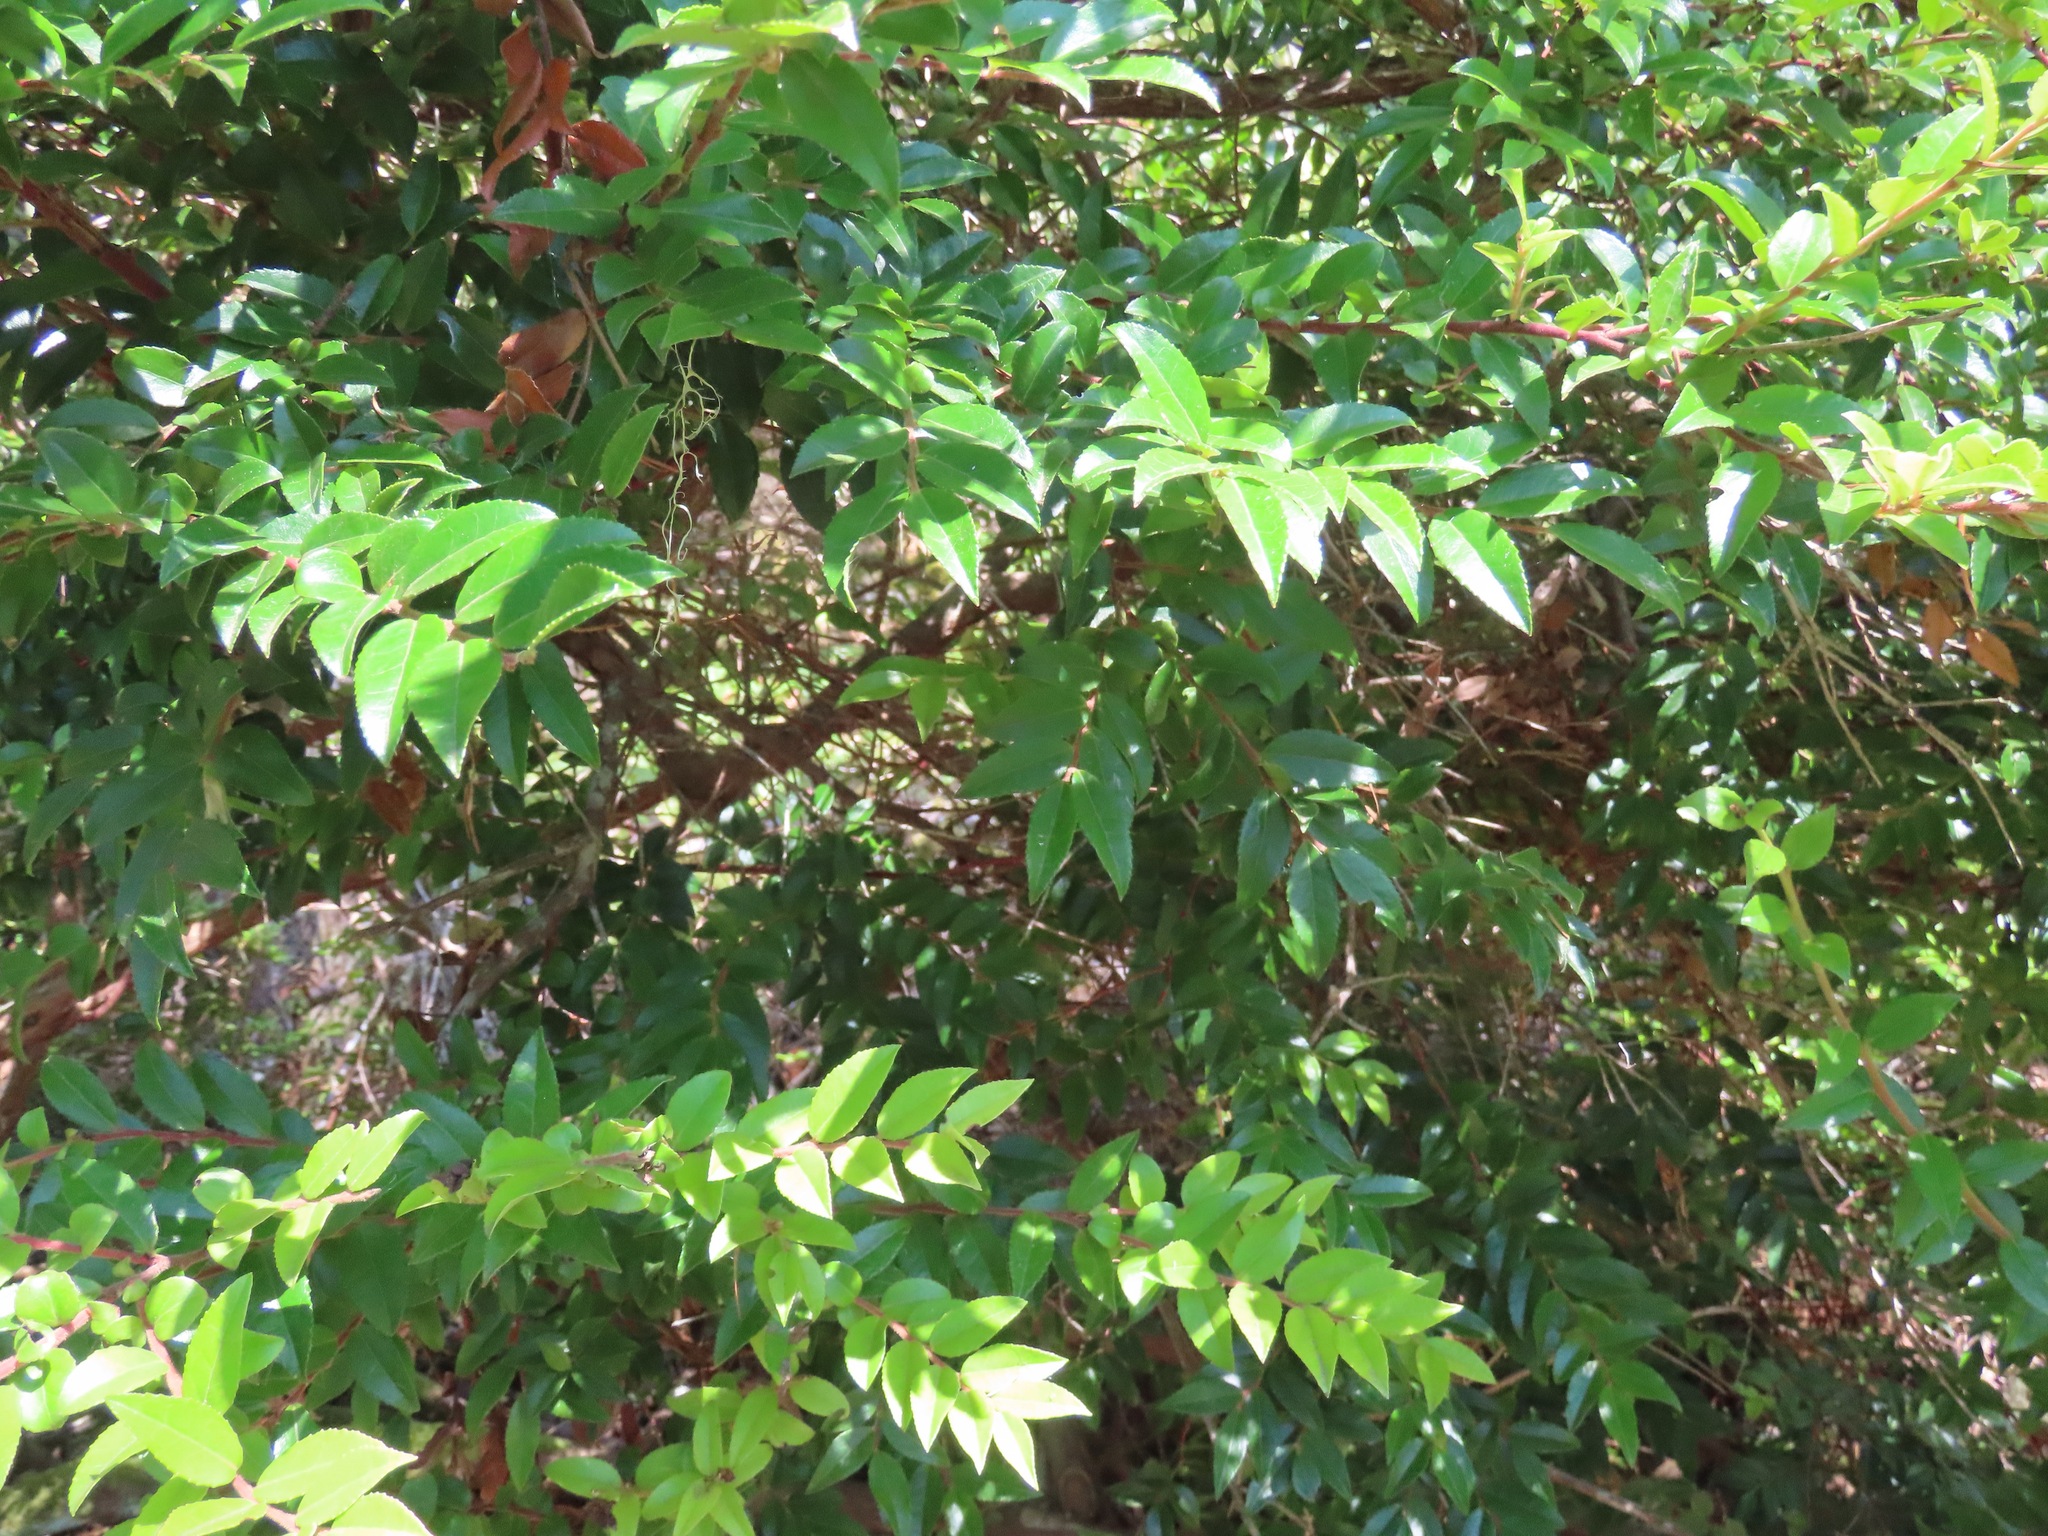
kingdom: Plantae
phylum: Tracheophyta
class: Magnoliopsida
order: Ericales
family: Ericaceae
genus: Vaccinium
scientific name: Vaccinium ovatum
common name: California-huckleberry
